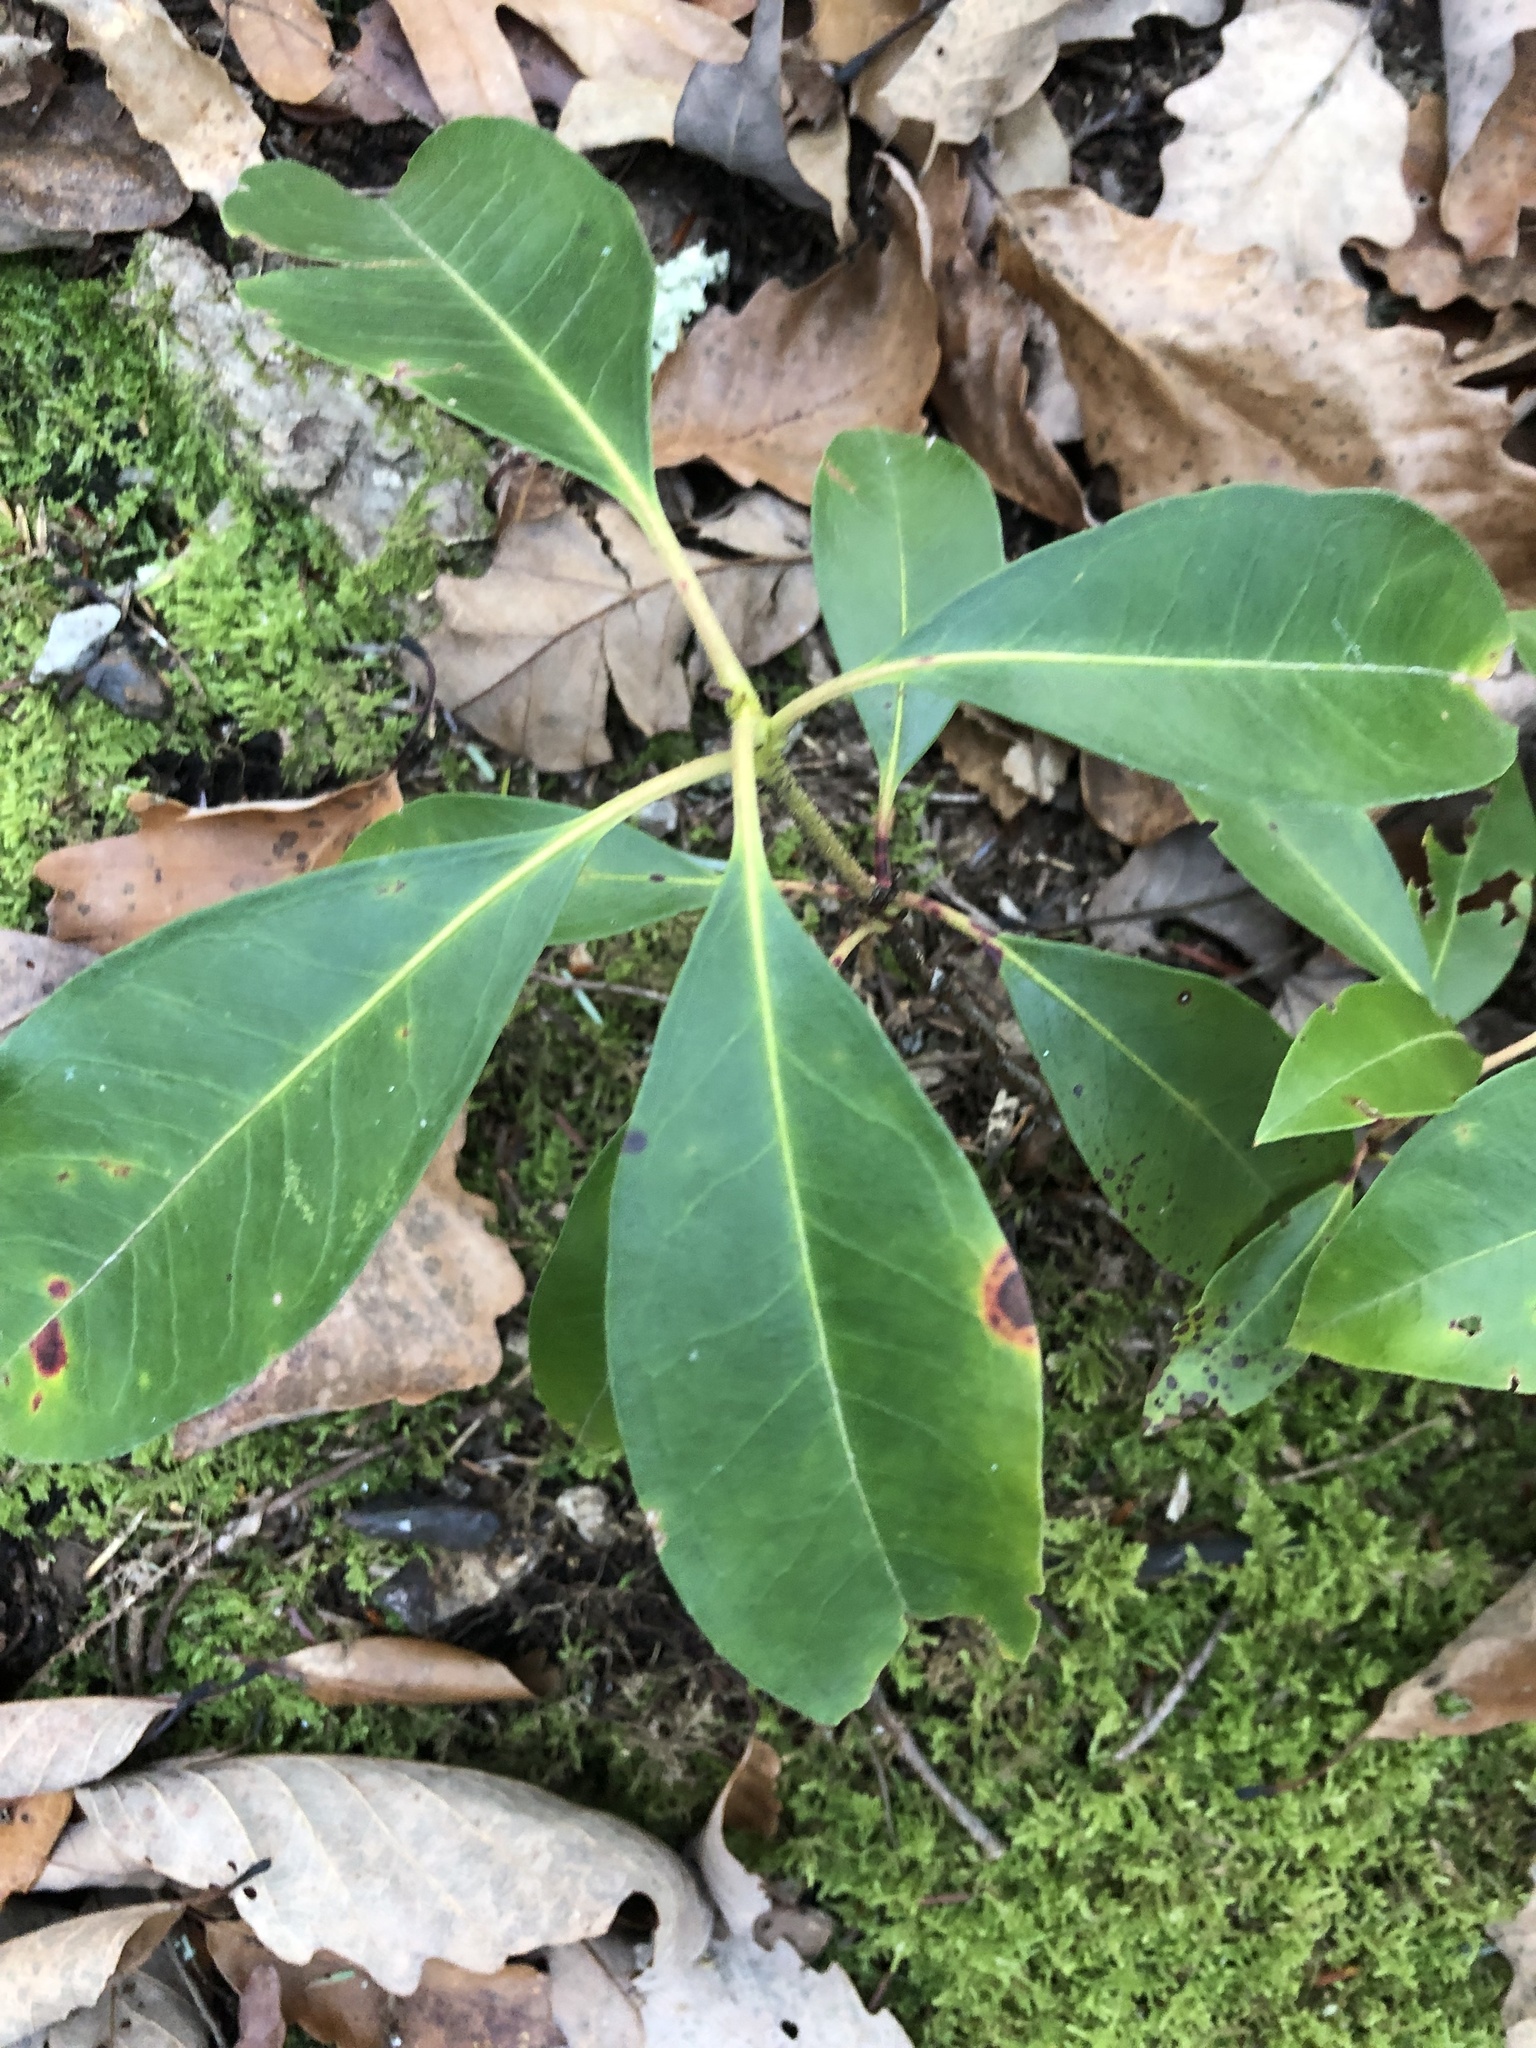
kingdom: Plantae
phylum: Tracheophyta
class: Magnoliopsida
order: Ericales
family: Ericaceae
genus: Kalmia
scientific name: Kalmia latifolia
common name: Mountain-laurel
